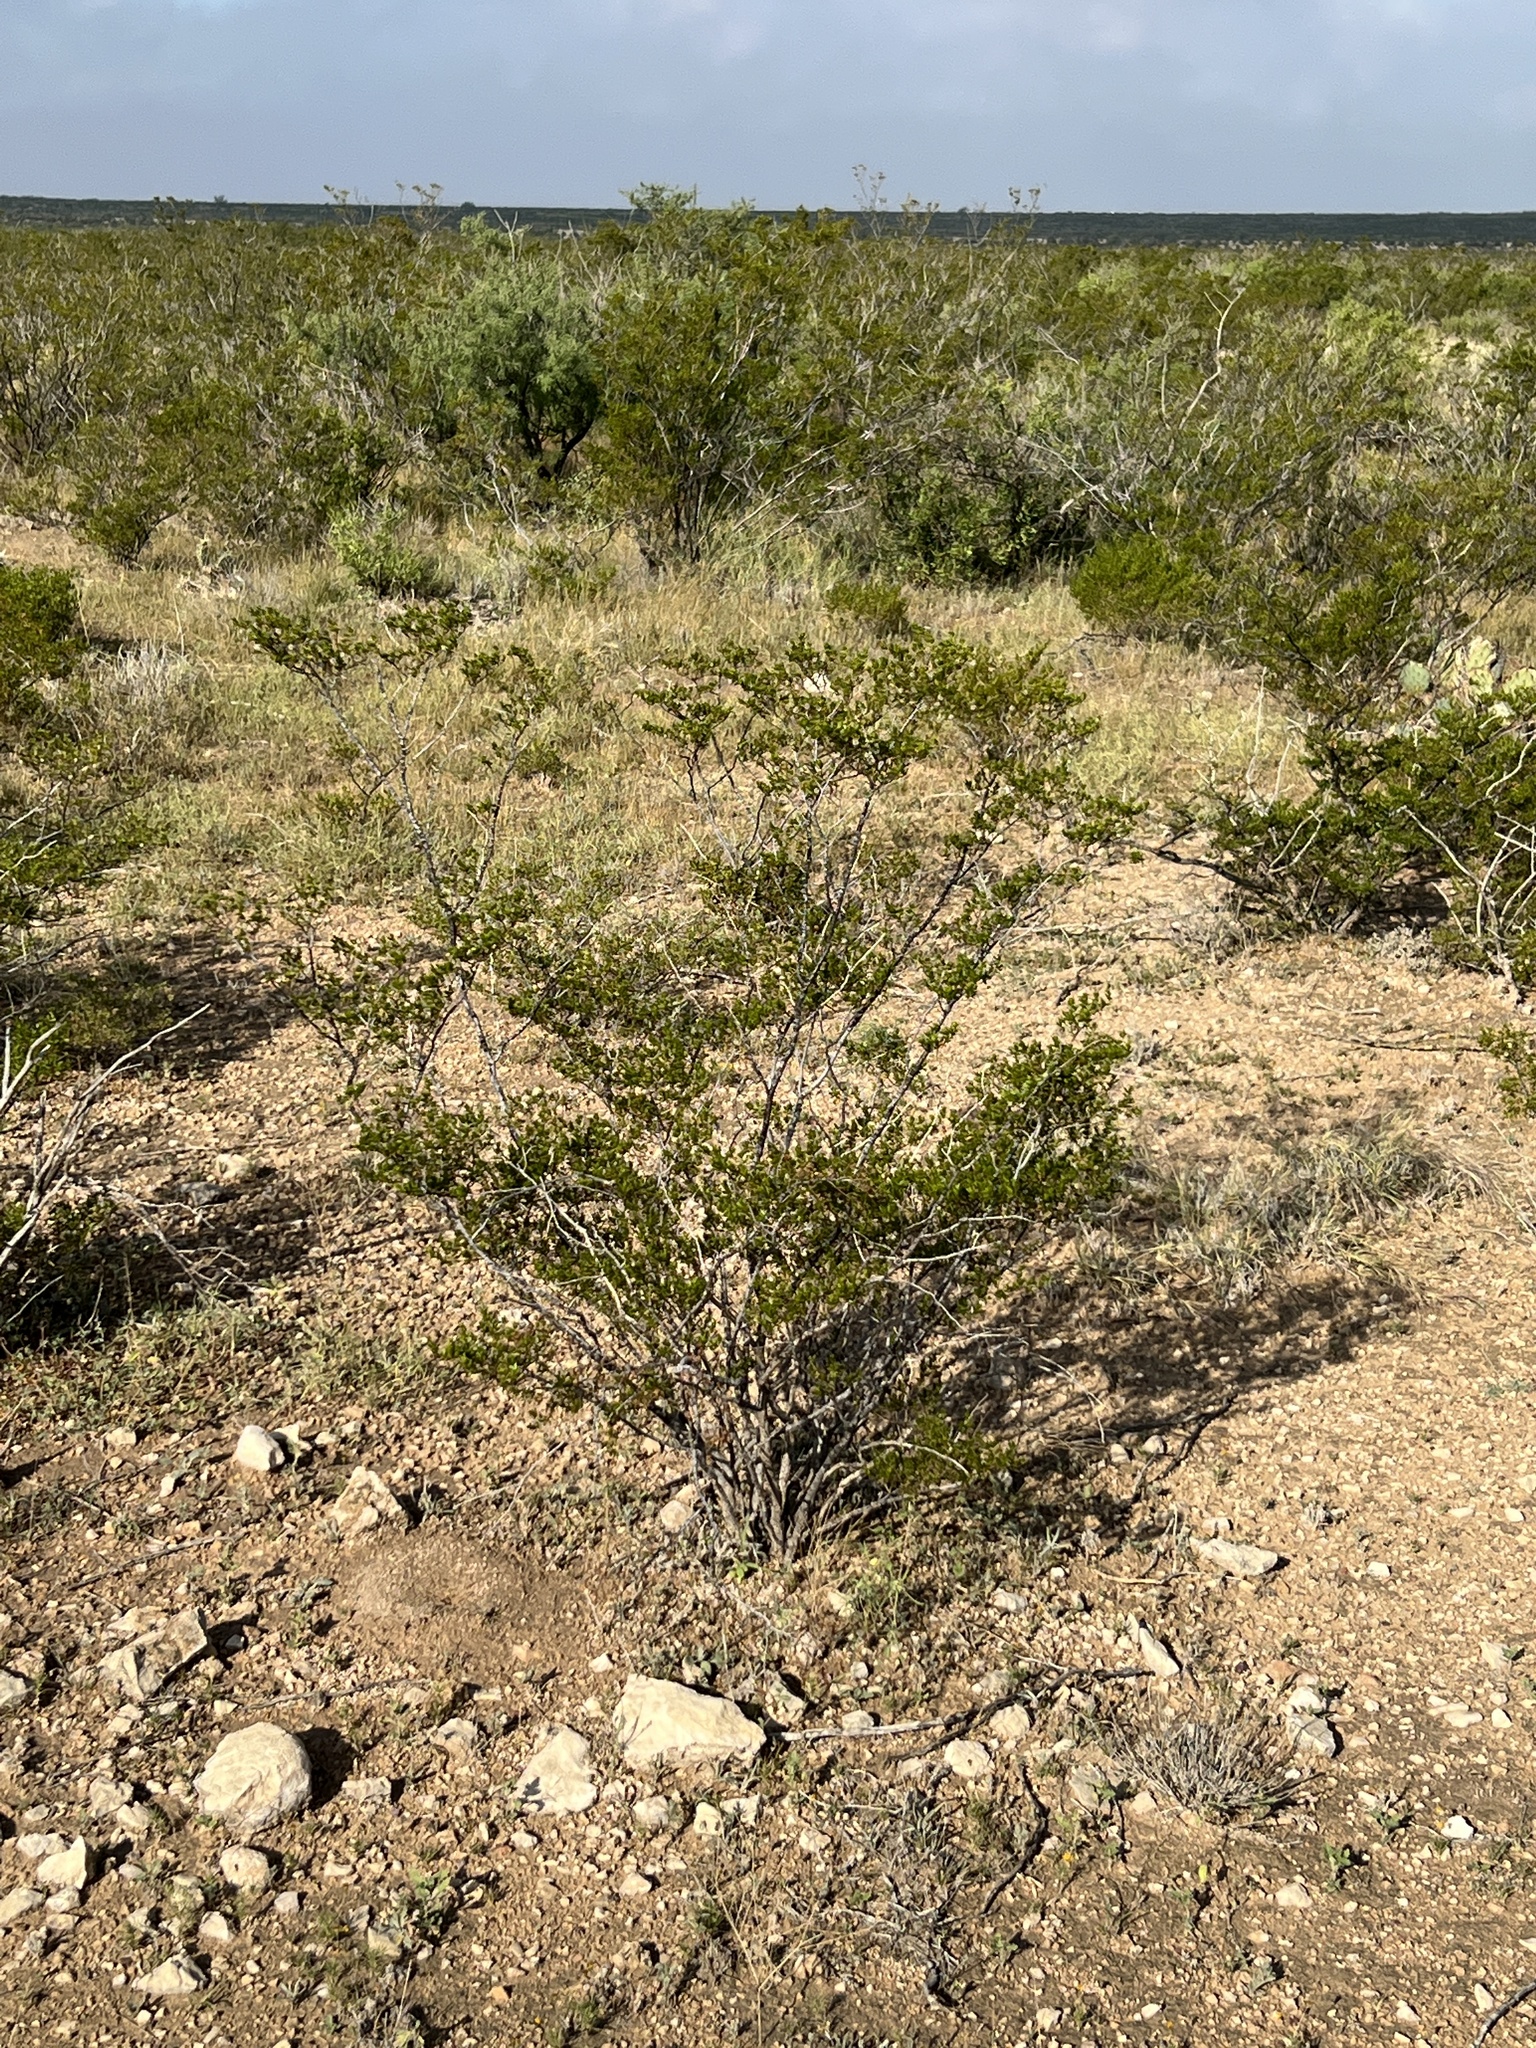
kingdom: Plantae
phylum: Tracheophyta
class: Magnoliopsida
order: Zygophyllales
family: Zygophyllaceae
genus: Larrea
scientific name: Larrea tridentata
